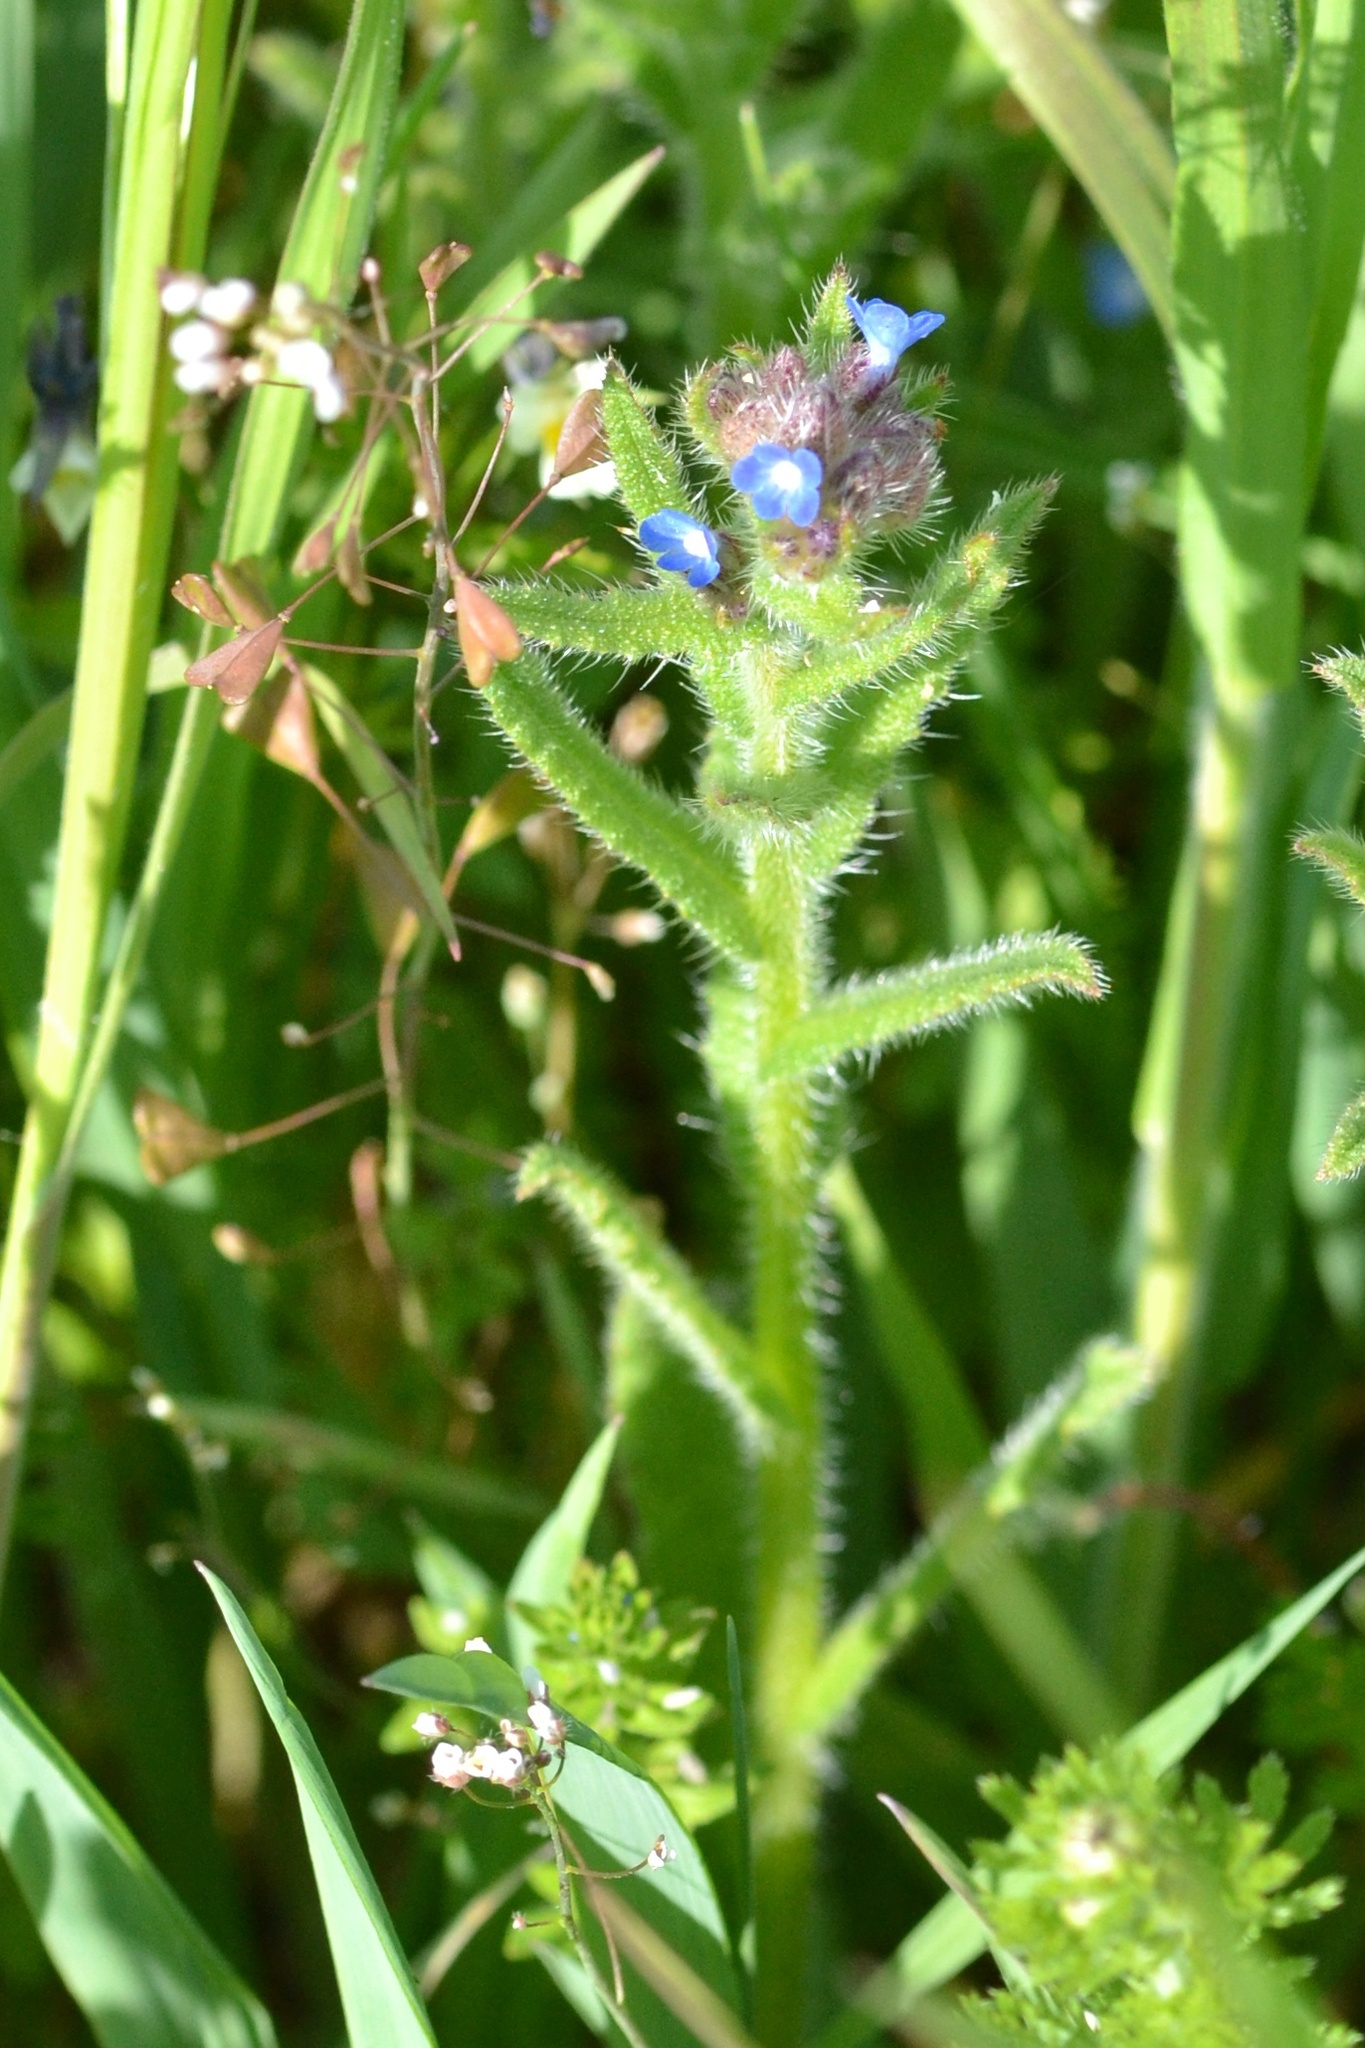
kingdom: Plantae
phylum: Tracheophyta
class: Magnoliopsida
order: Boraginales
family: Boraginaceae
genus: Lycopsis
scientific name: Lycopsis arvensis
